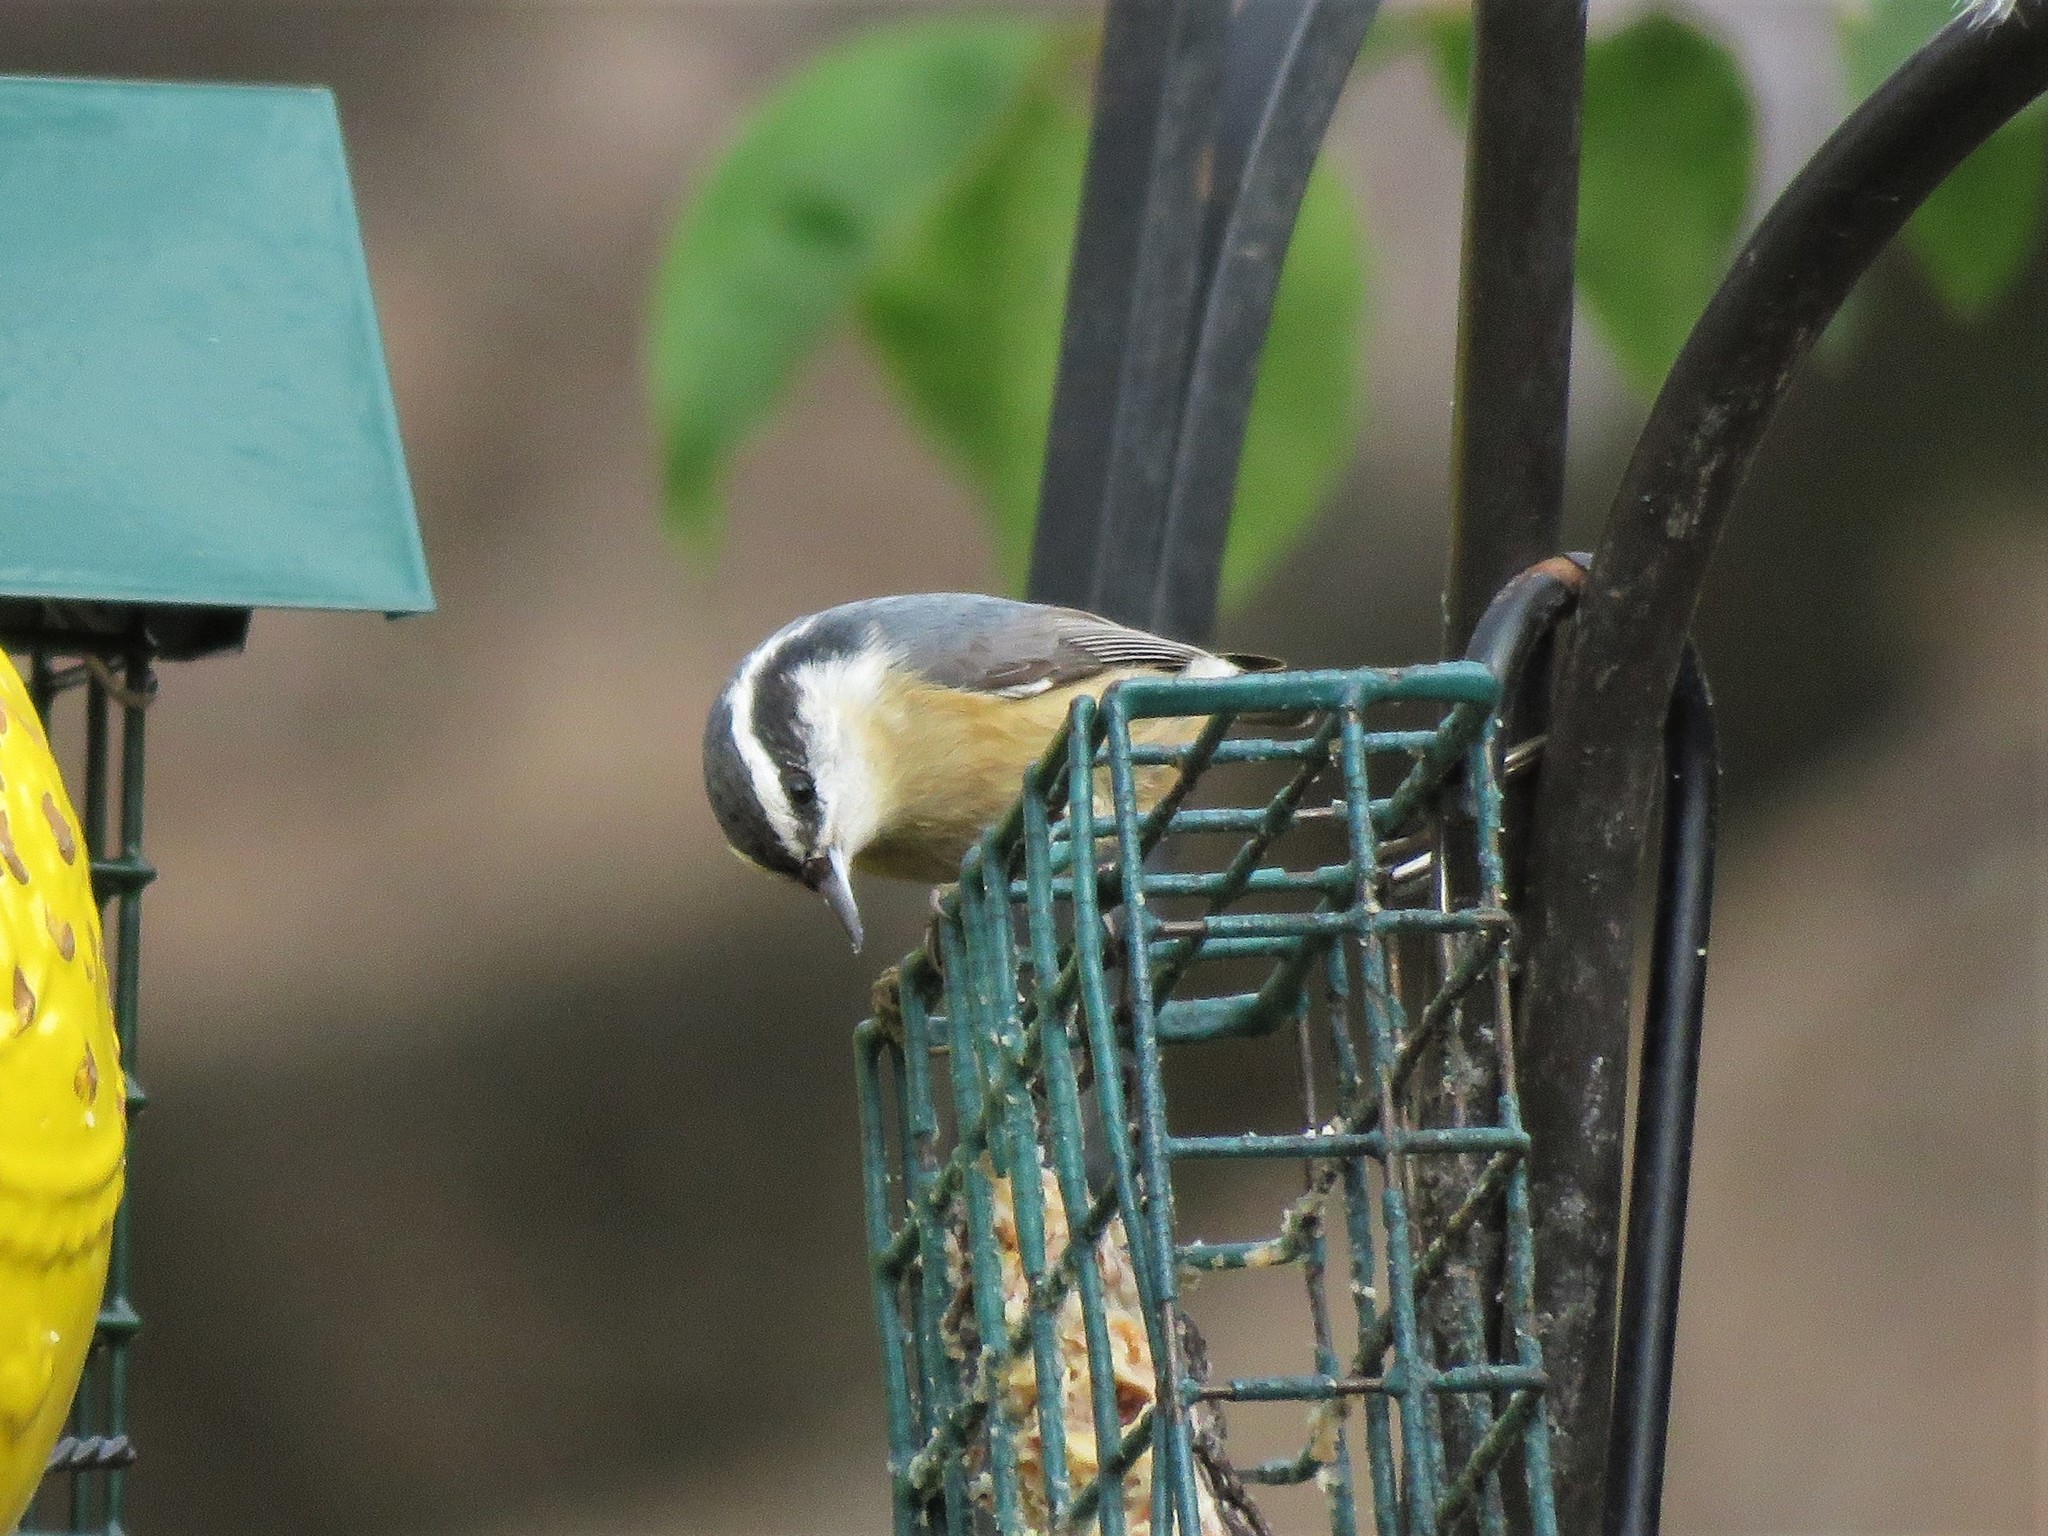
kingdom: Animalia
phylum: Chordata
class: Aves
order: Passeriformes
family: Sittidae
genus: Sitta
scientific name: Sitta canadensis
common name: Red-breasted nuthatch
